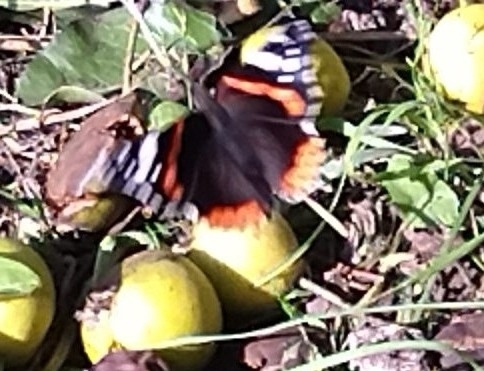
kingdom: Animalia
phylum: Arthropoda
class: Insecta
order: Lepidoptera
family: Nymphalidae
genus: Vanessa
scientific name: Vanessa atalanta
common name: Red admiral
